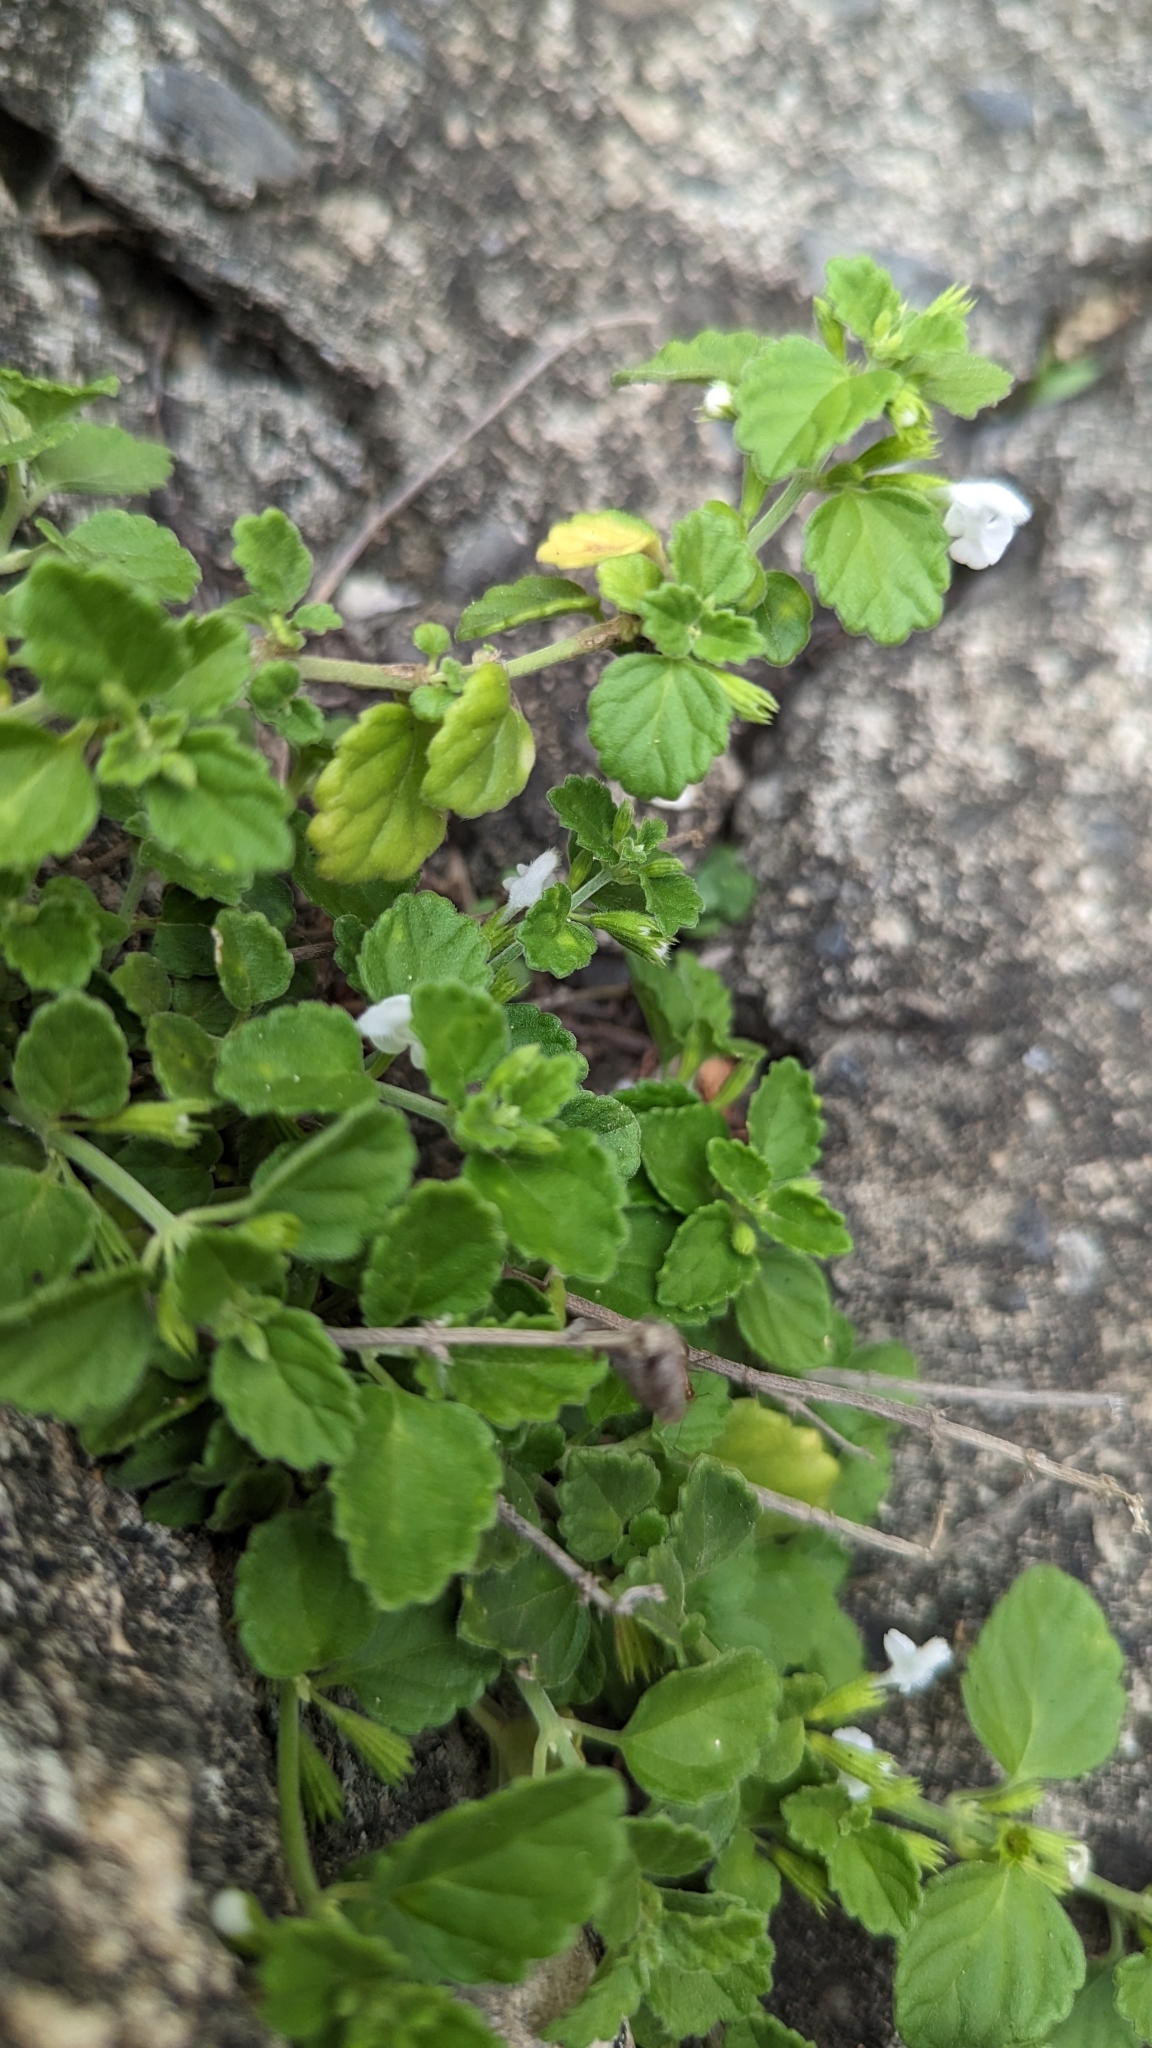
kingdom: Plantae
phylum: Tracheophyta
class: Magnoliopsida
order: Lamiales
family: Lamiaceae
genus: Leucas
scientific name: Leucas chinensis
